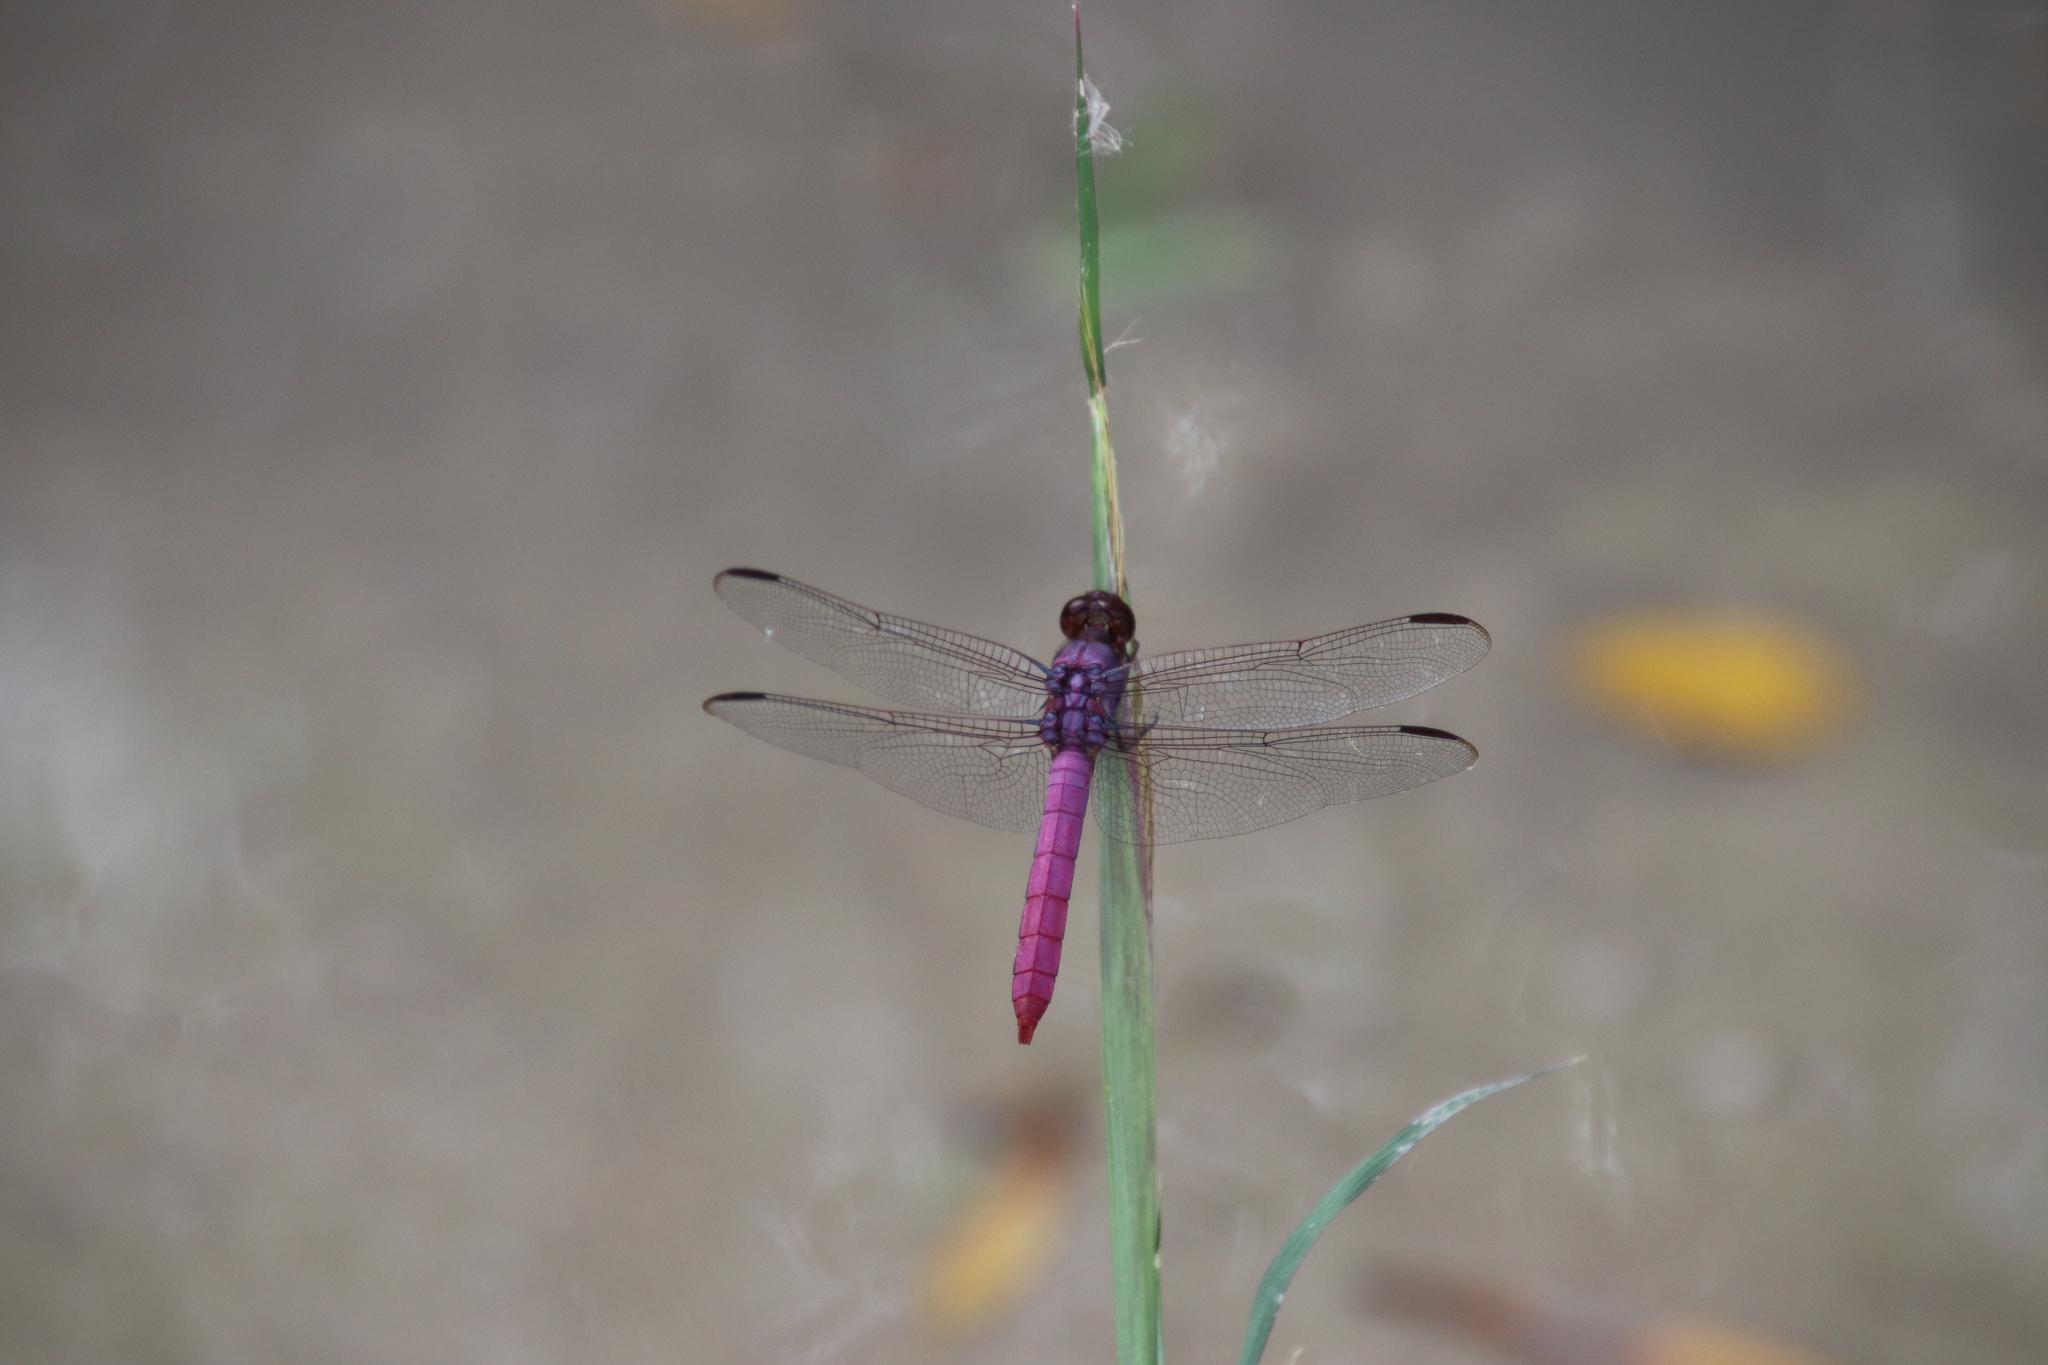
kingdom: Animalia
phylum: Arthropoda
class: Insecta
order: Odonata
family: Libellulidae
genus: Orthemis
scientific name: Orthemis ferruginea
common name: Roseate skimmer
